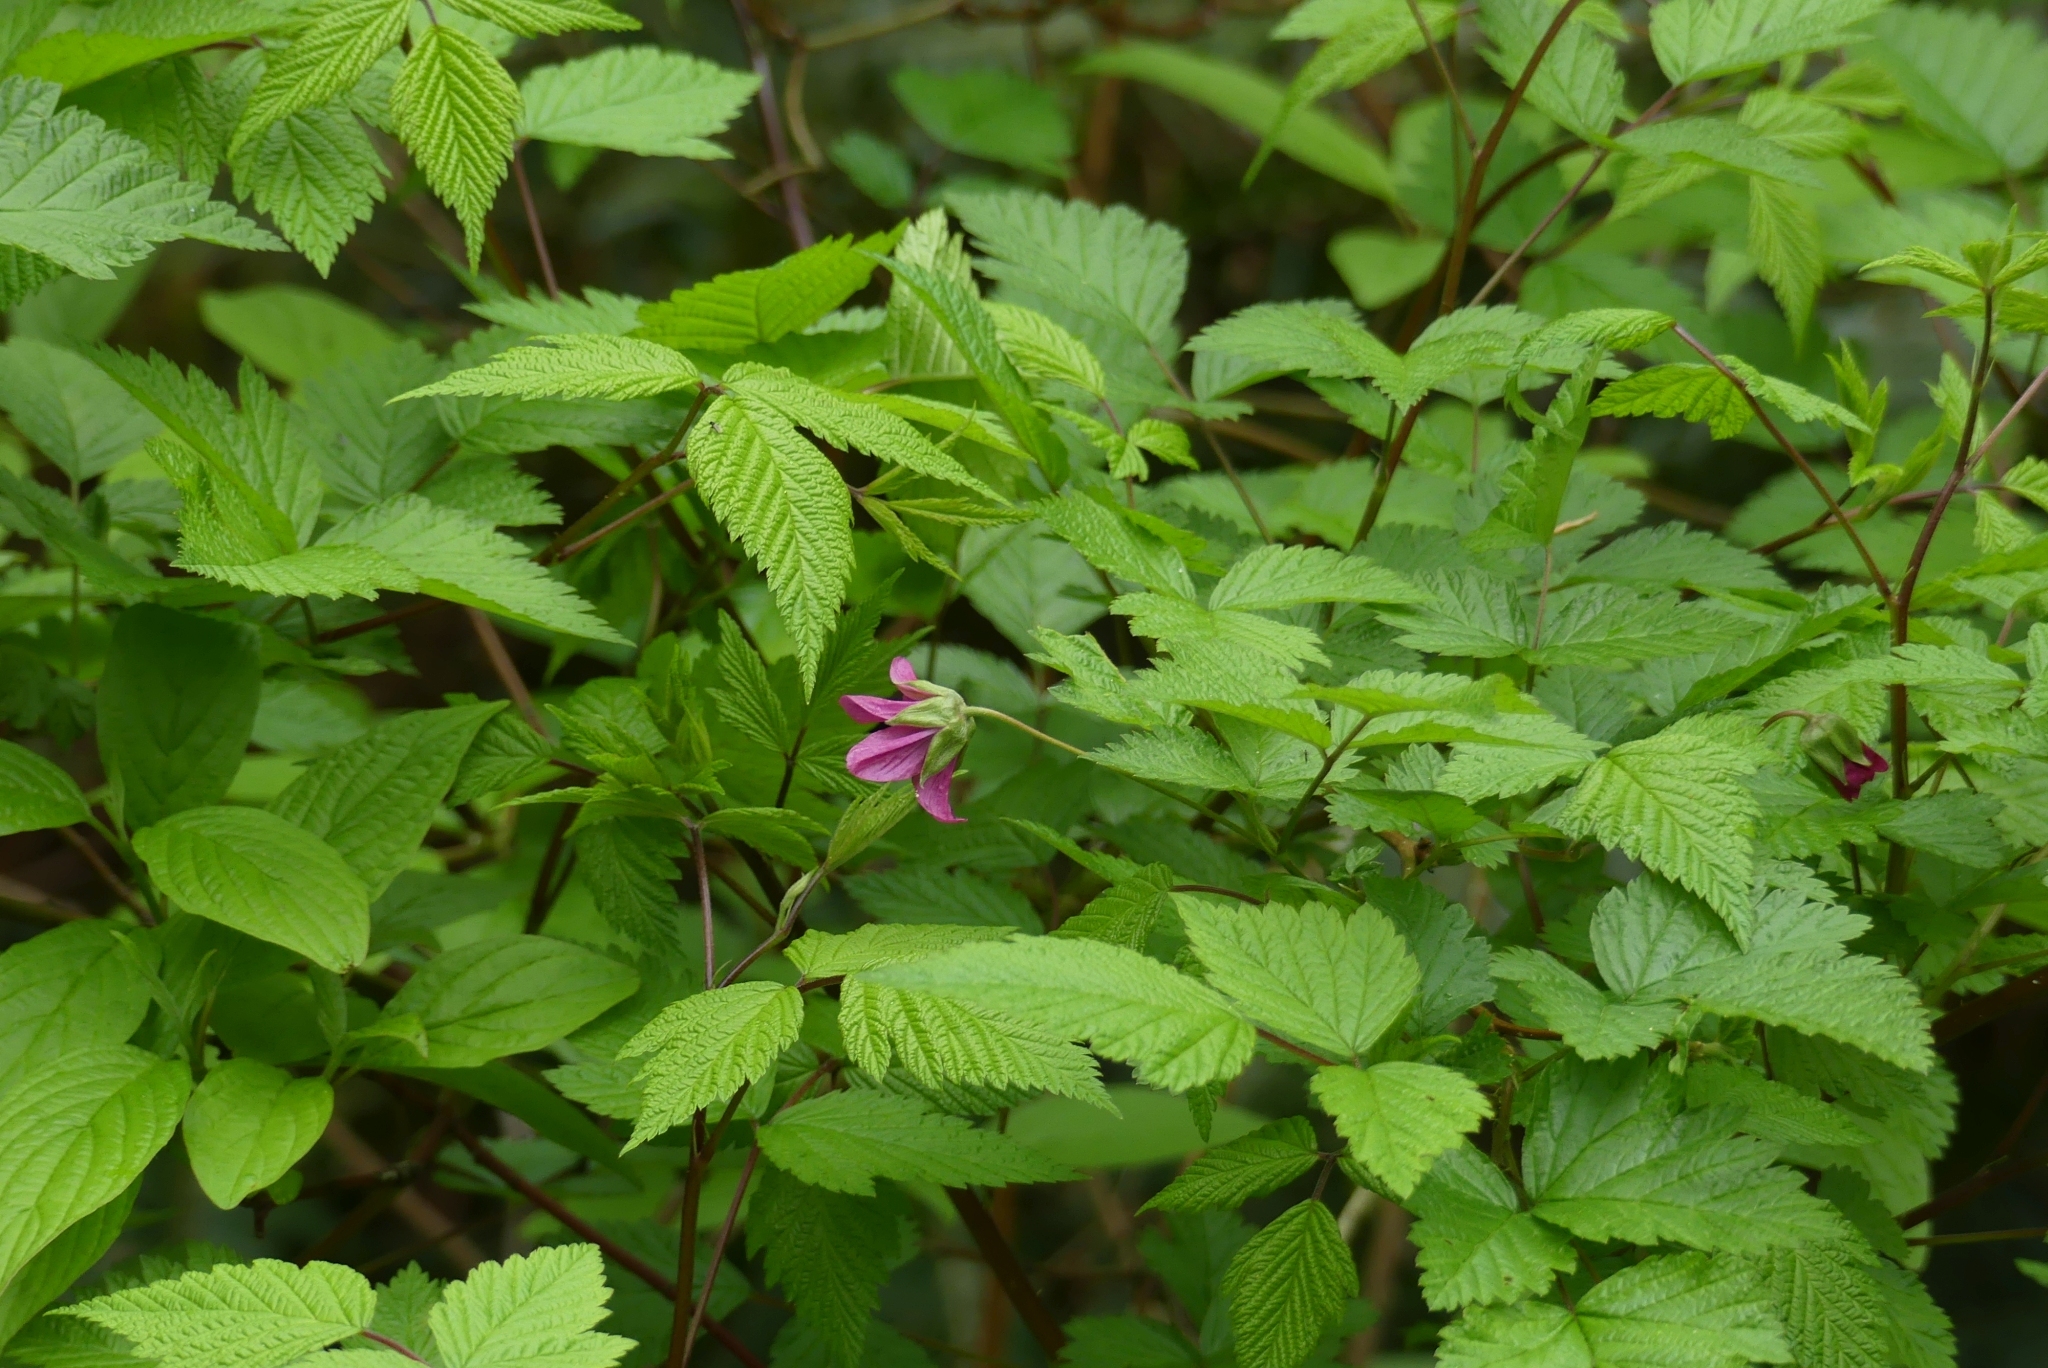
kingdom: Plantae
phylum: Tracheophyta
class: Magnoliopsida
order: Rosales
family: Rosaceae
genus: Rubus
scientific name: Rubus spectabilis
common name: Salmonberry
